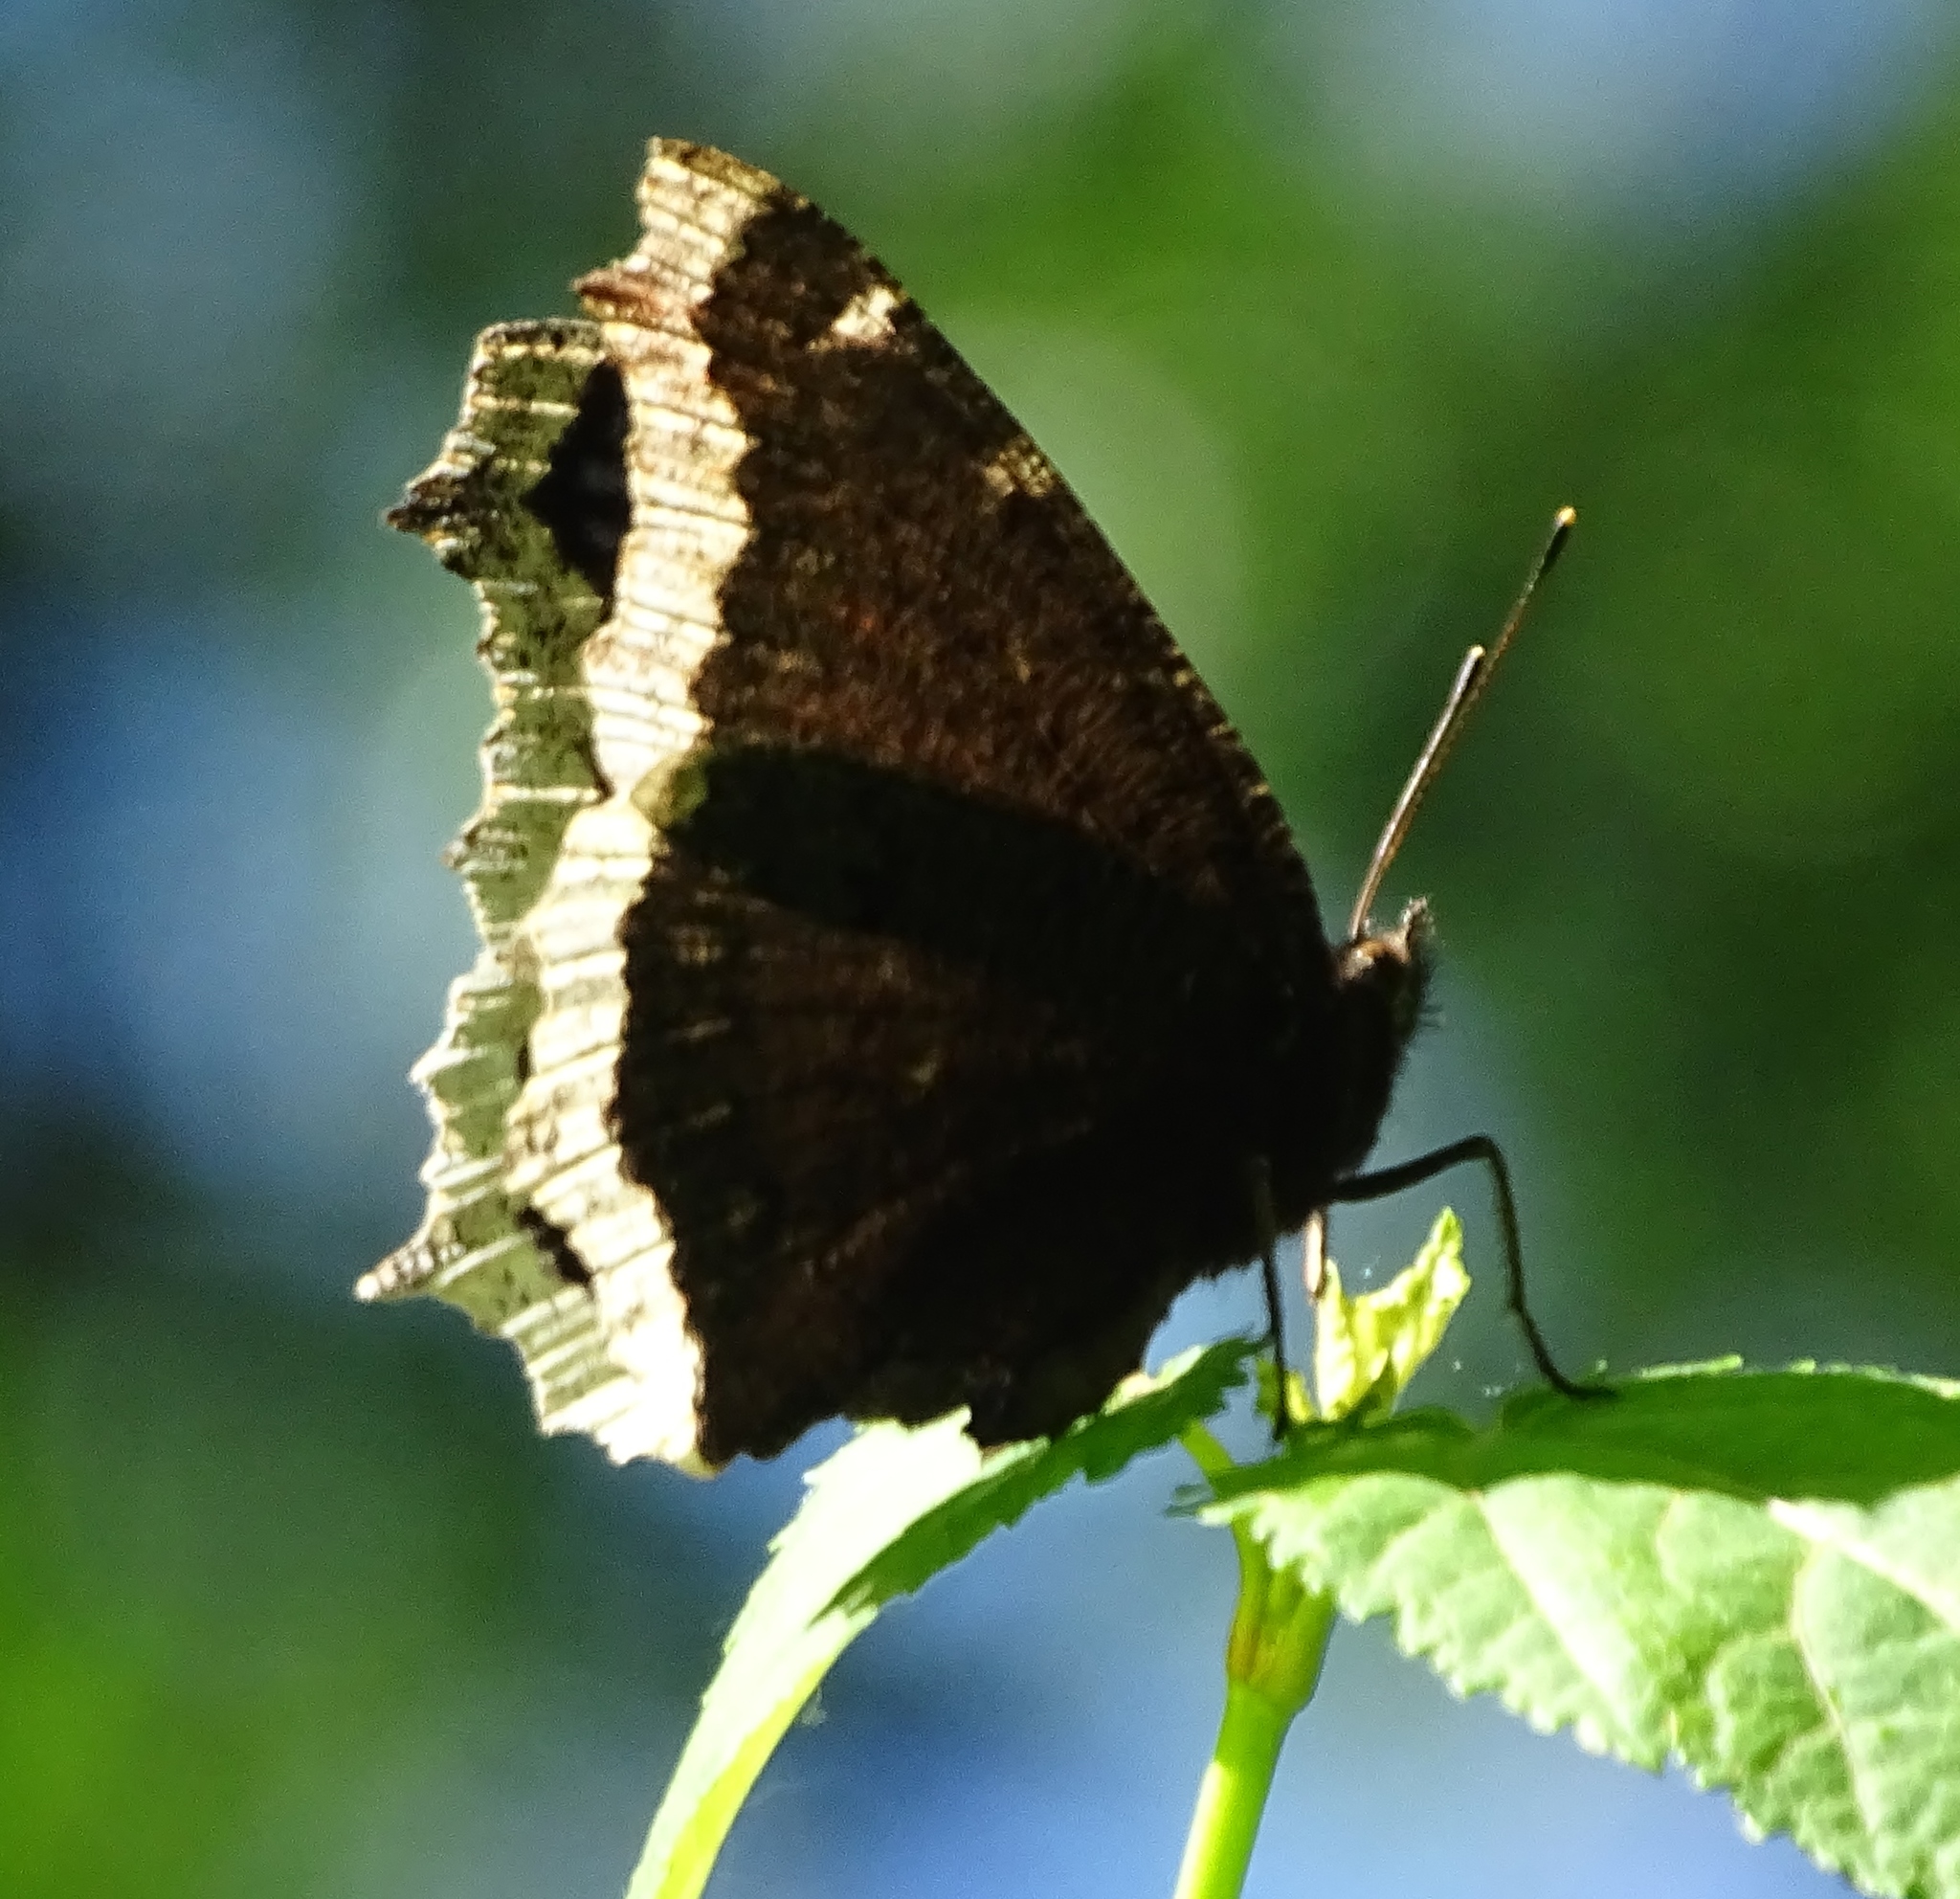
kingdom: Animalia
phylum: Arthropoda
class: Insecta
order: Lepidoptera
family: Nymphalidae
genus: Nymphalis
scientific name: Nymphalis antiopa
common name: Camberwell beauty
